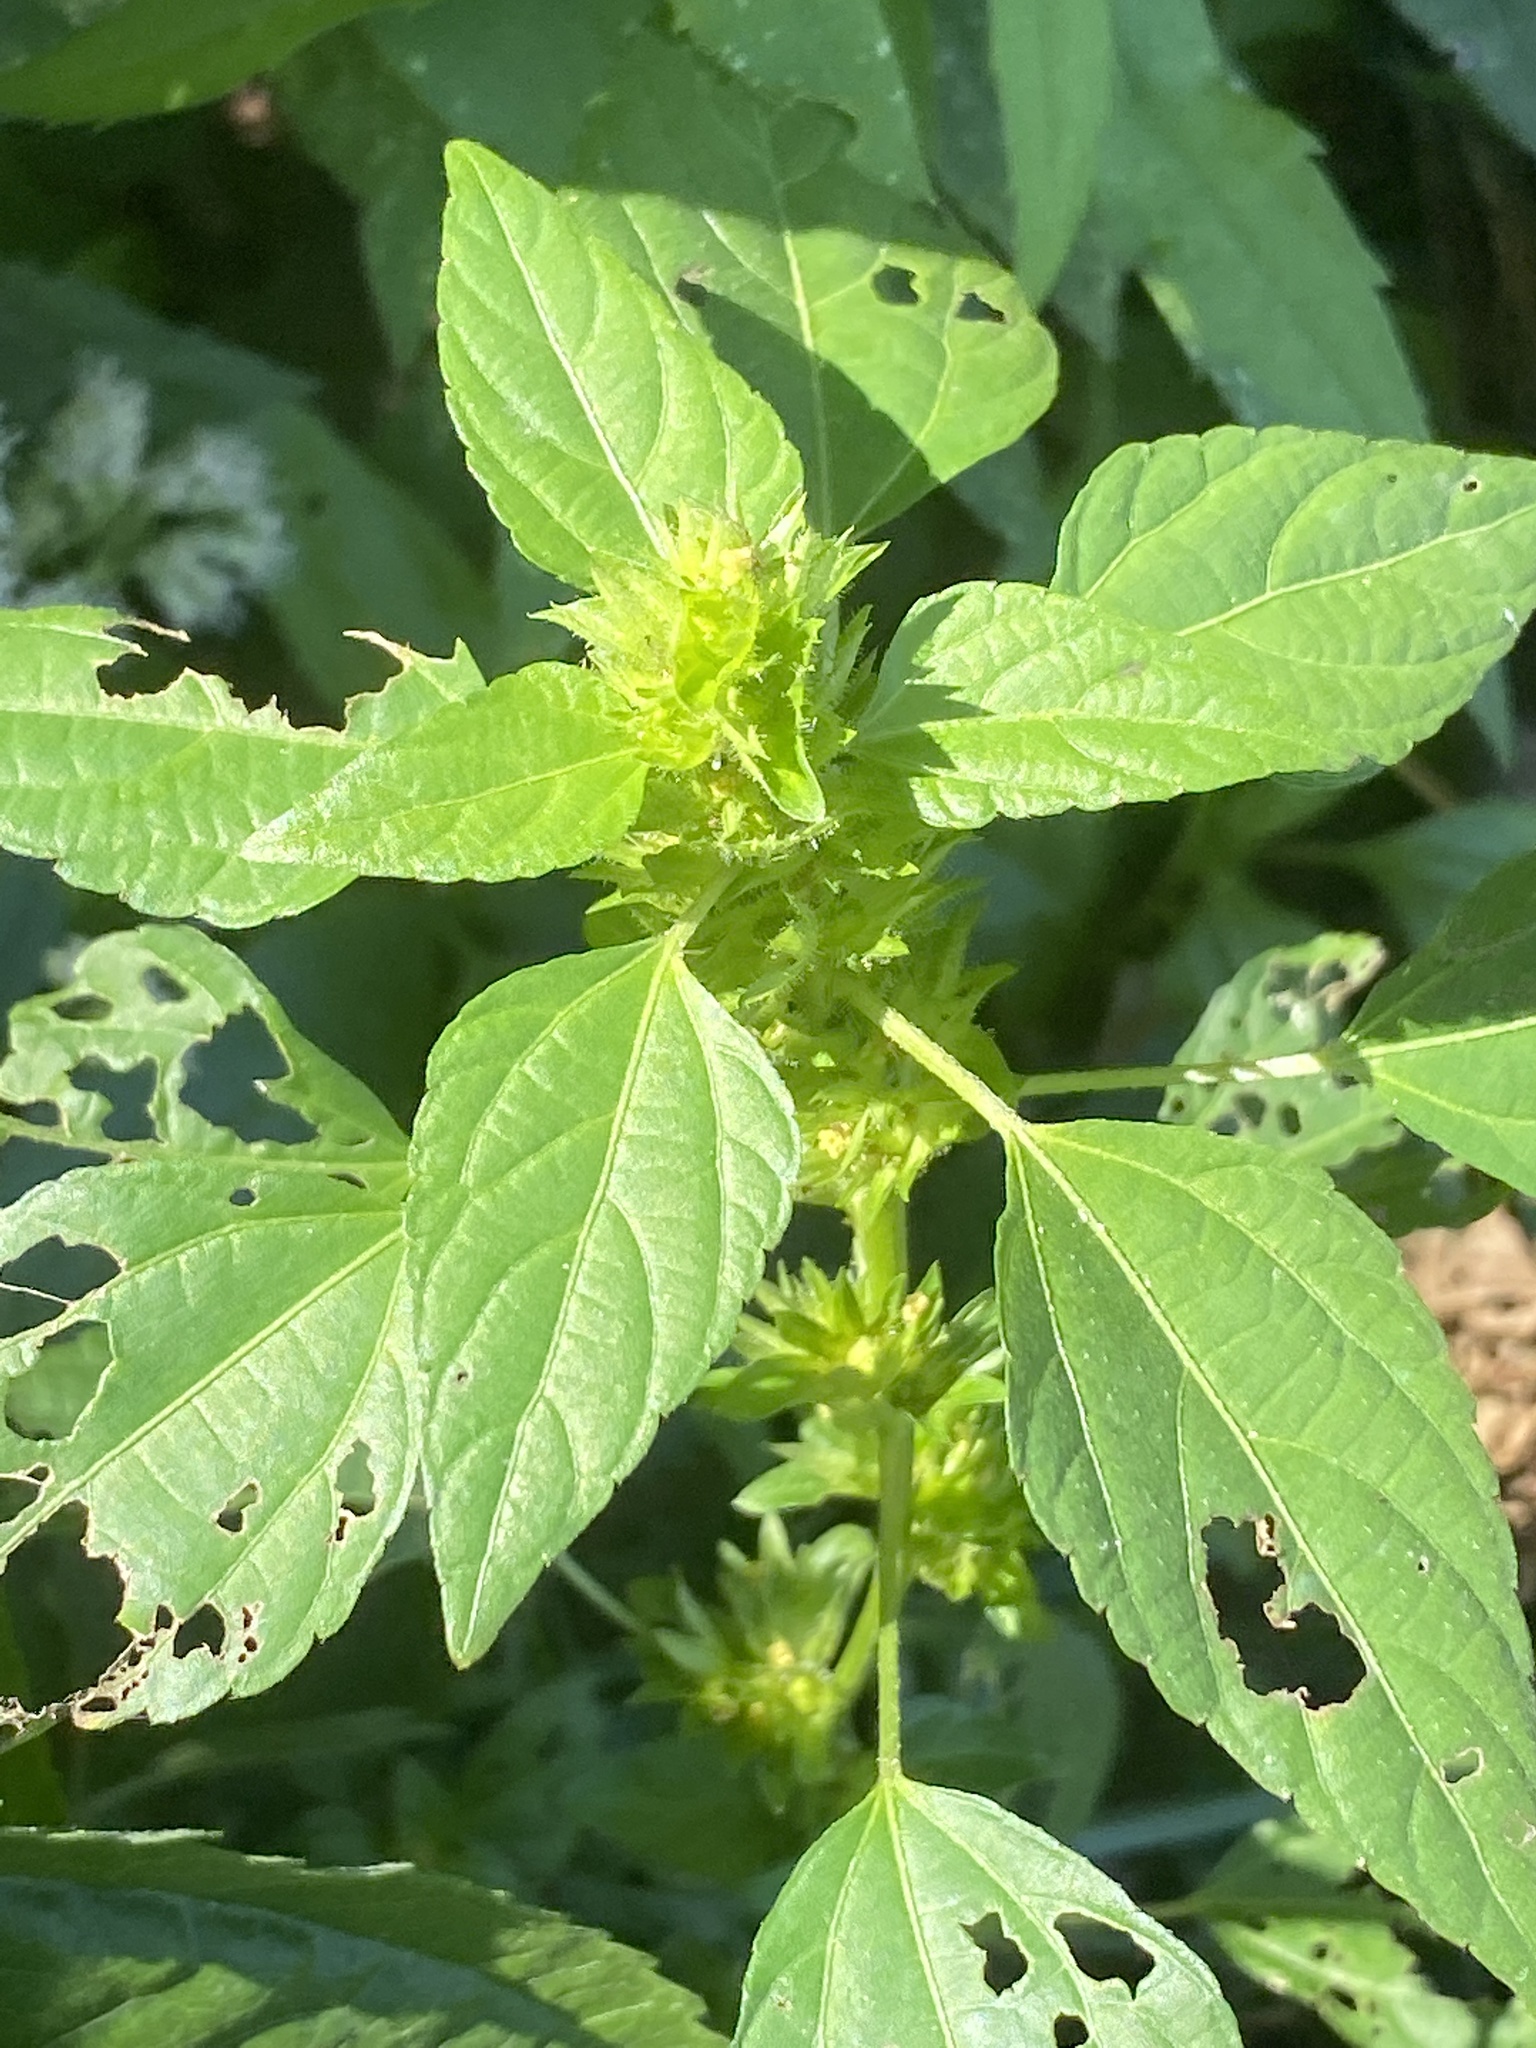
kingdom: Plantae
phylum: Tracheophyta
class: Magnoliopsida
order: Malpighiales
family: Euphorbiaceae
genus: Acalypha
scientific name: Acalypha rhomboidea
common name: Rhombic copperleaf
